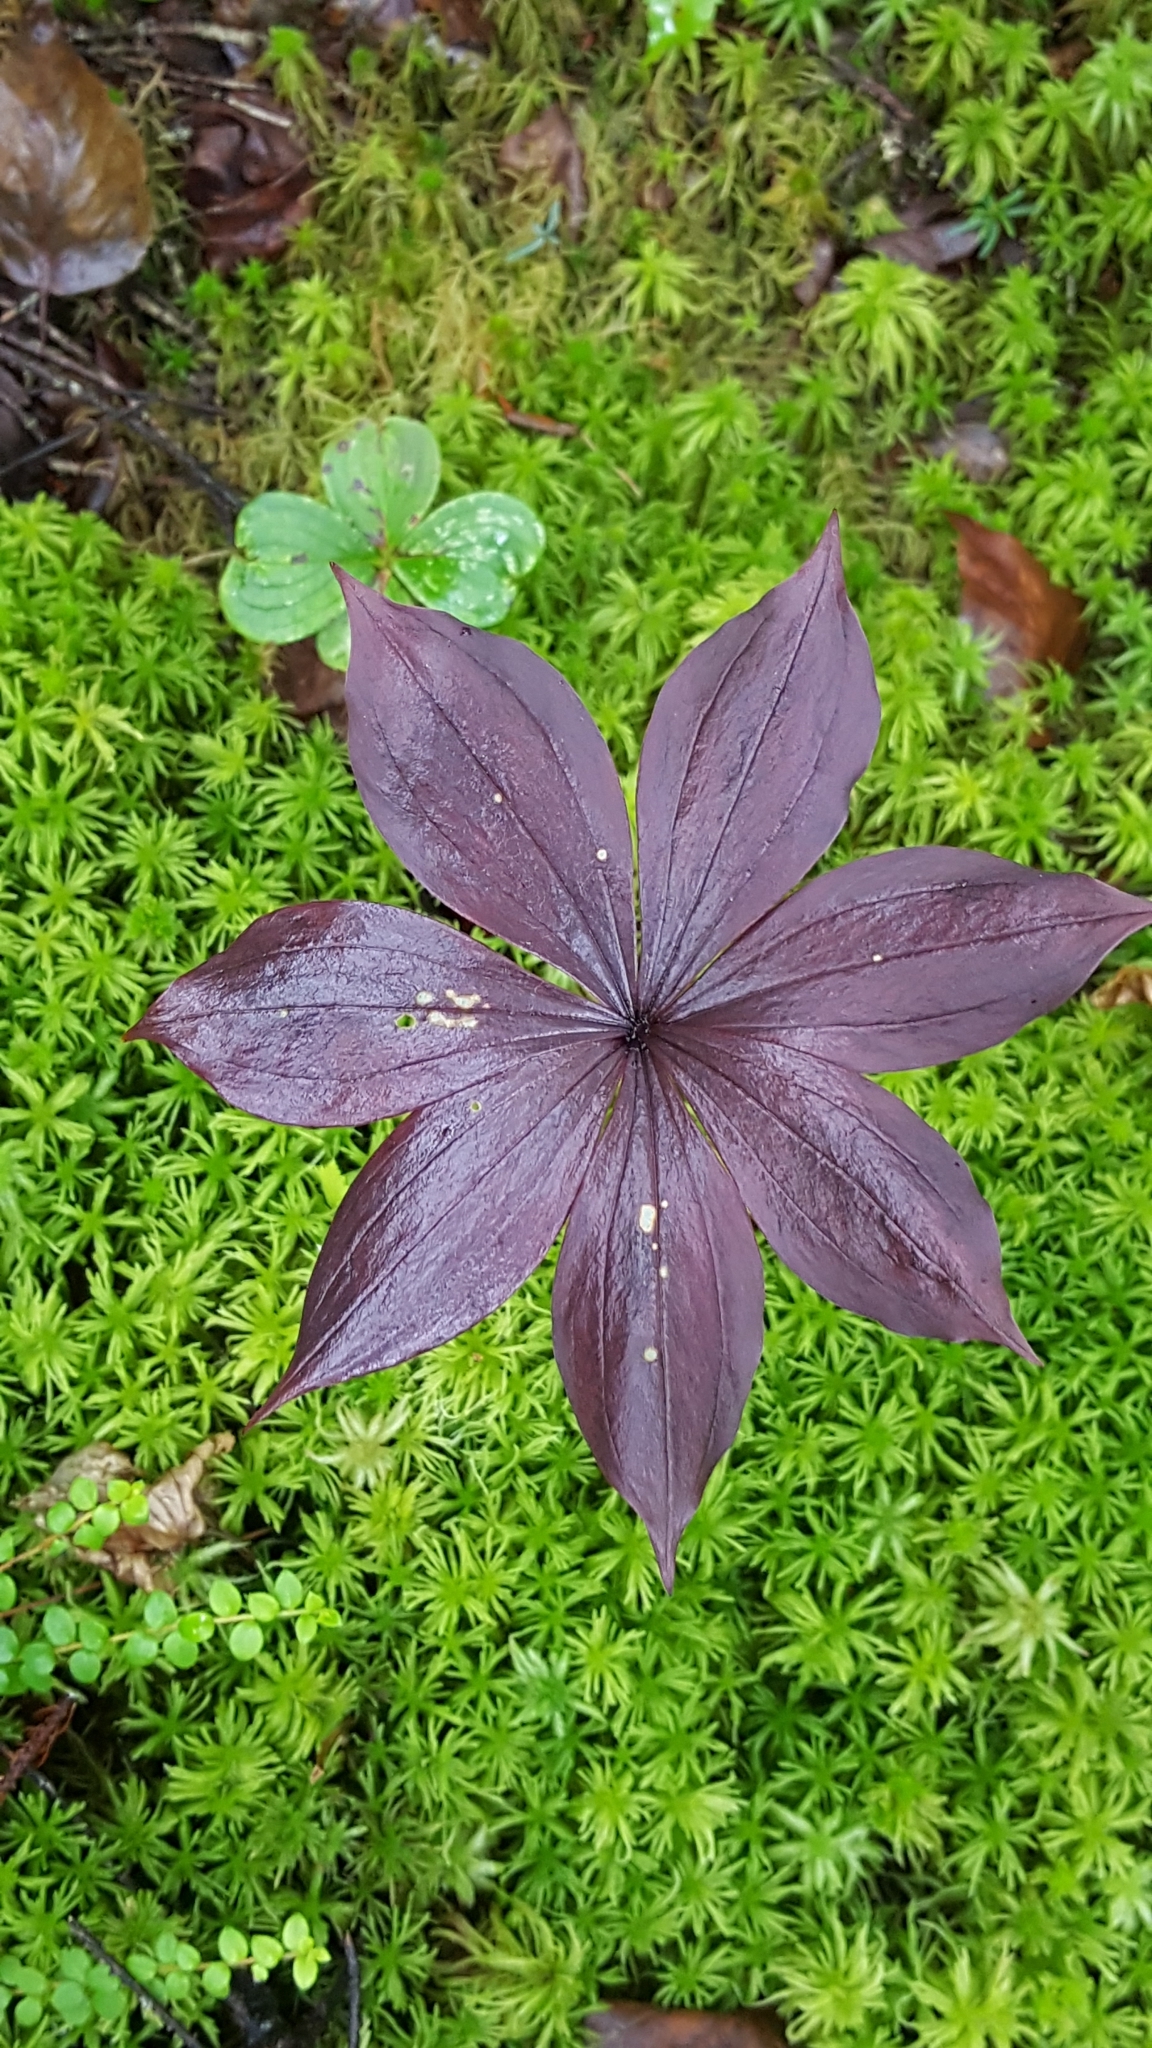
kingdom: Plantae
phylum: Tracheophyta
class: Liliopsida
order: Liliales
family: Liliaceae
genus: Medeola
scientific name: Medeola virginiana
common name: Indian cucumber-root
